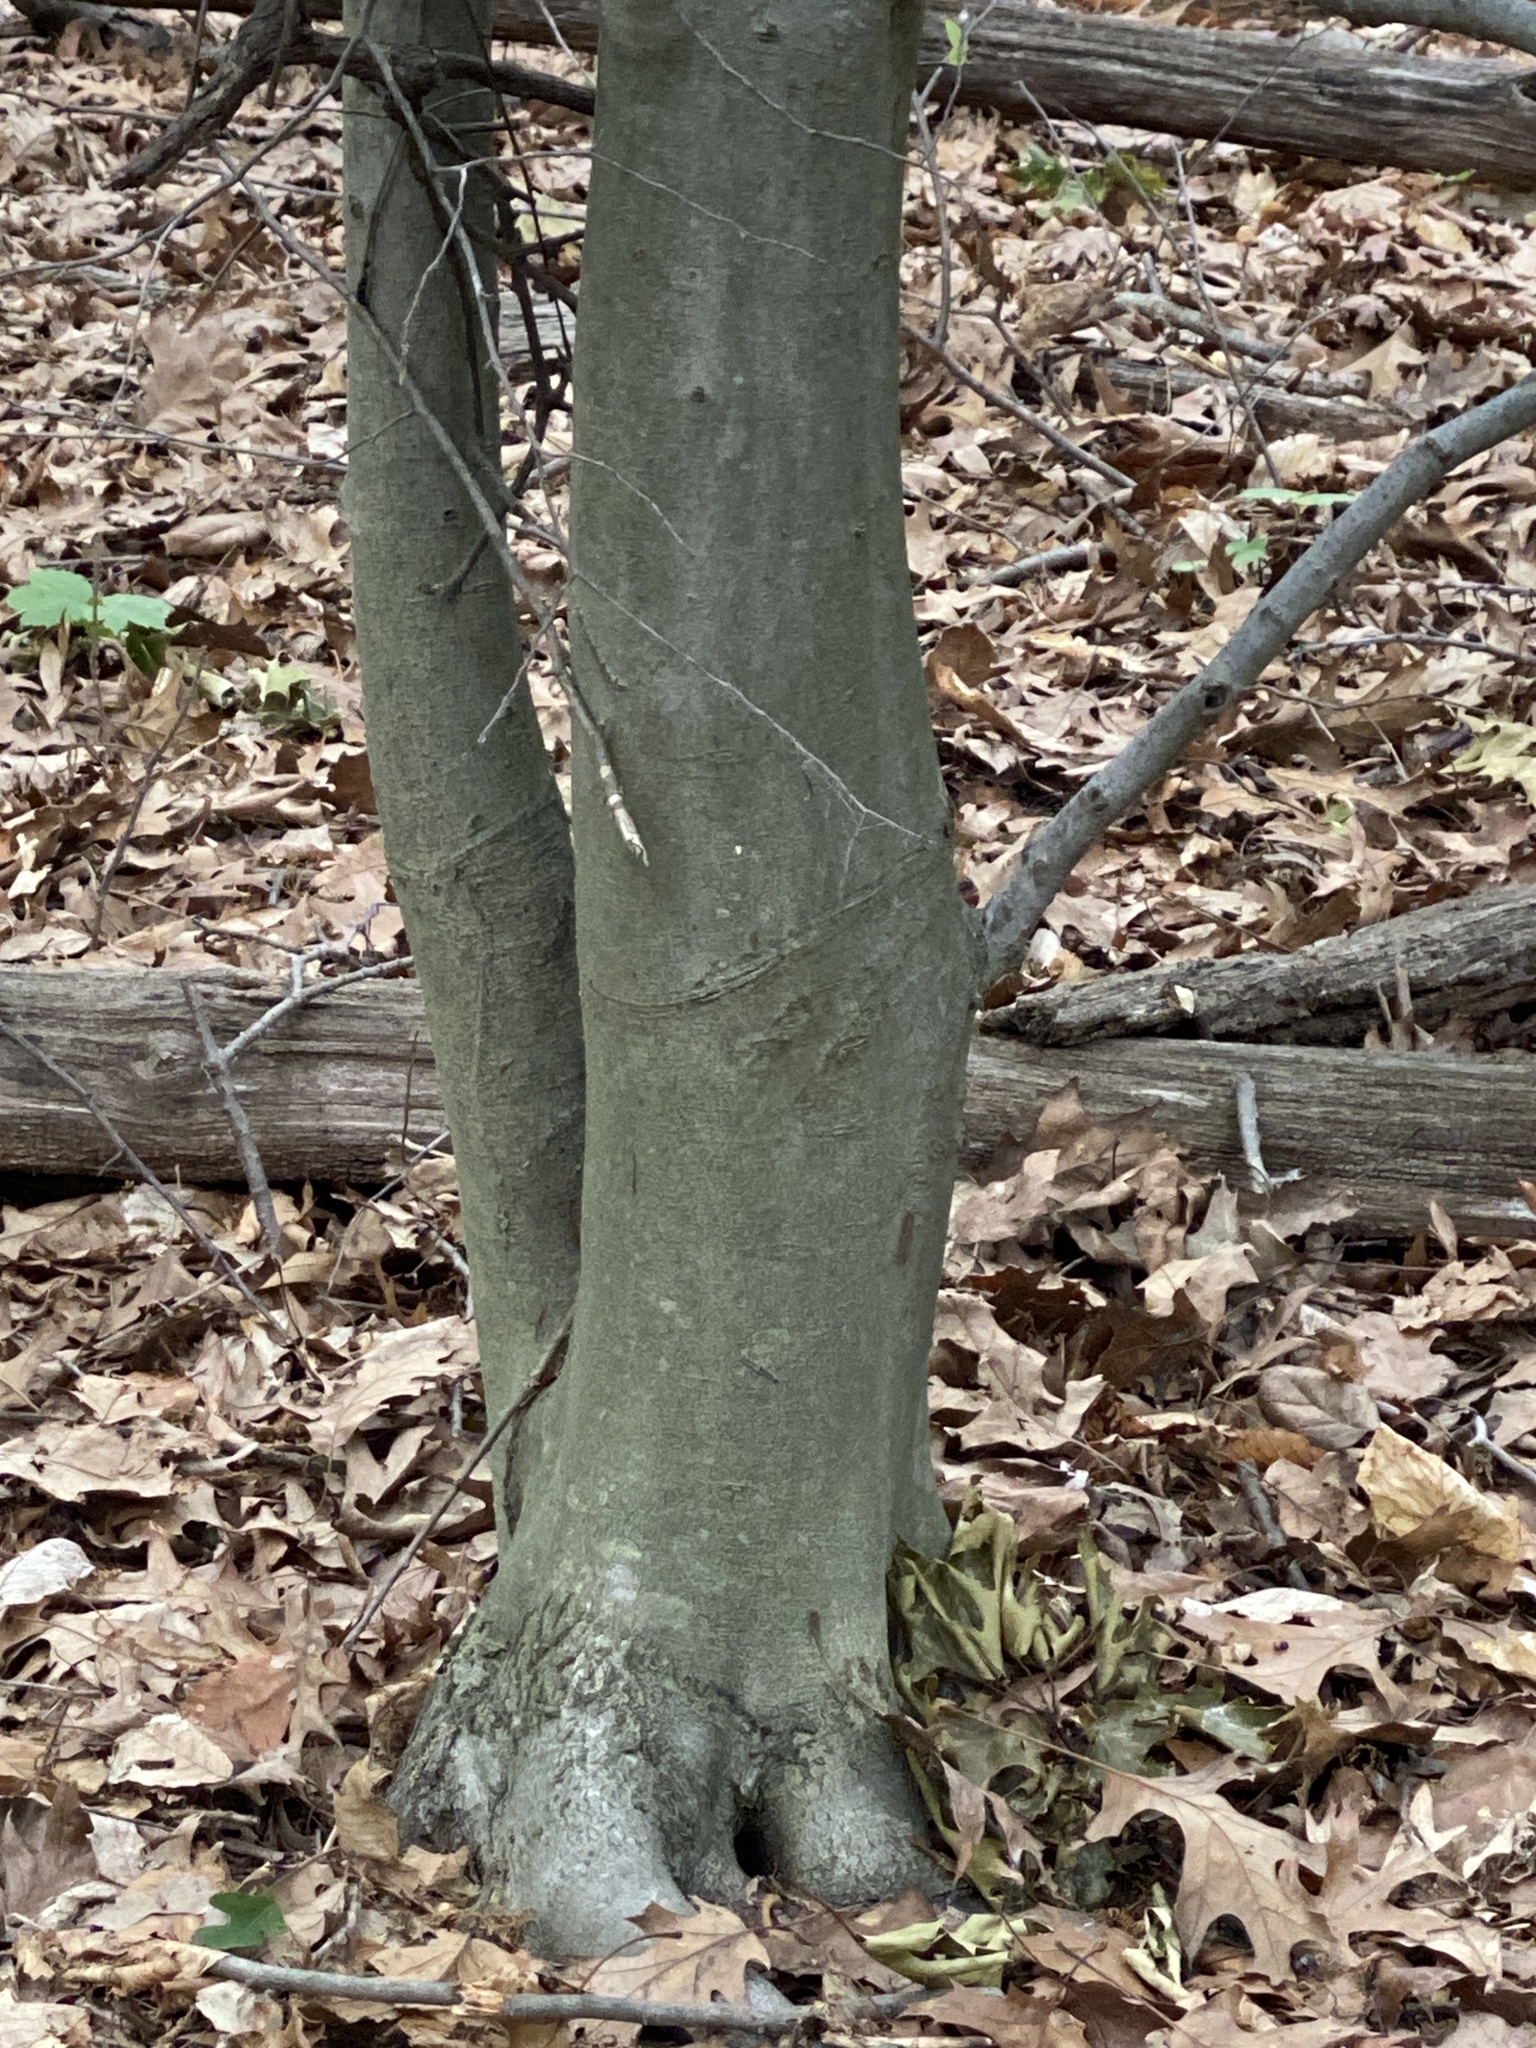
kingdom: Plantae
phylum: Tracheophyta
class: Magnoliopsida
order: Fagales
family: Fagaceae
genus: Fagus
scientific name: Fagus grandifolia
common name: American beech
